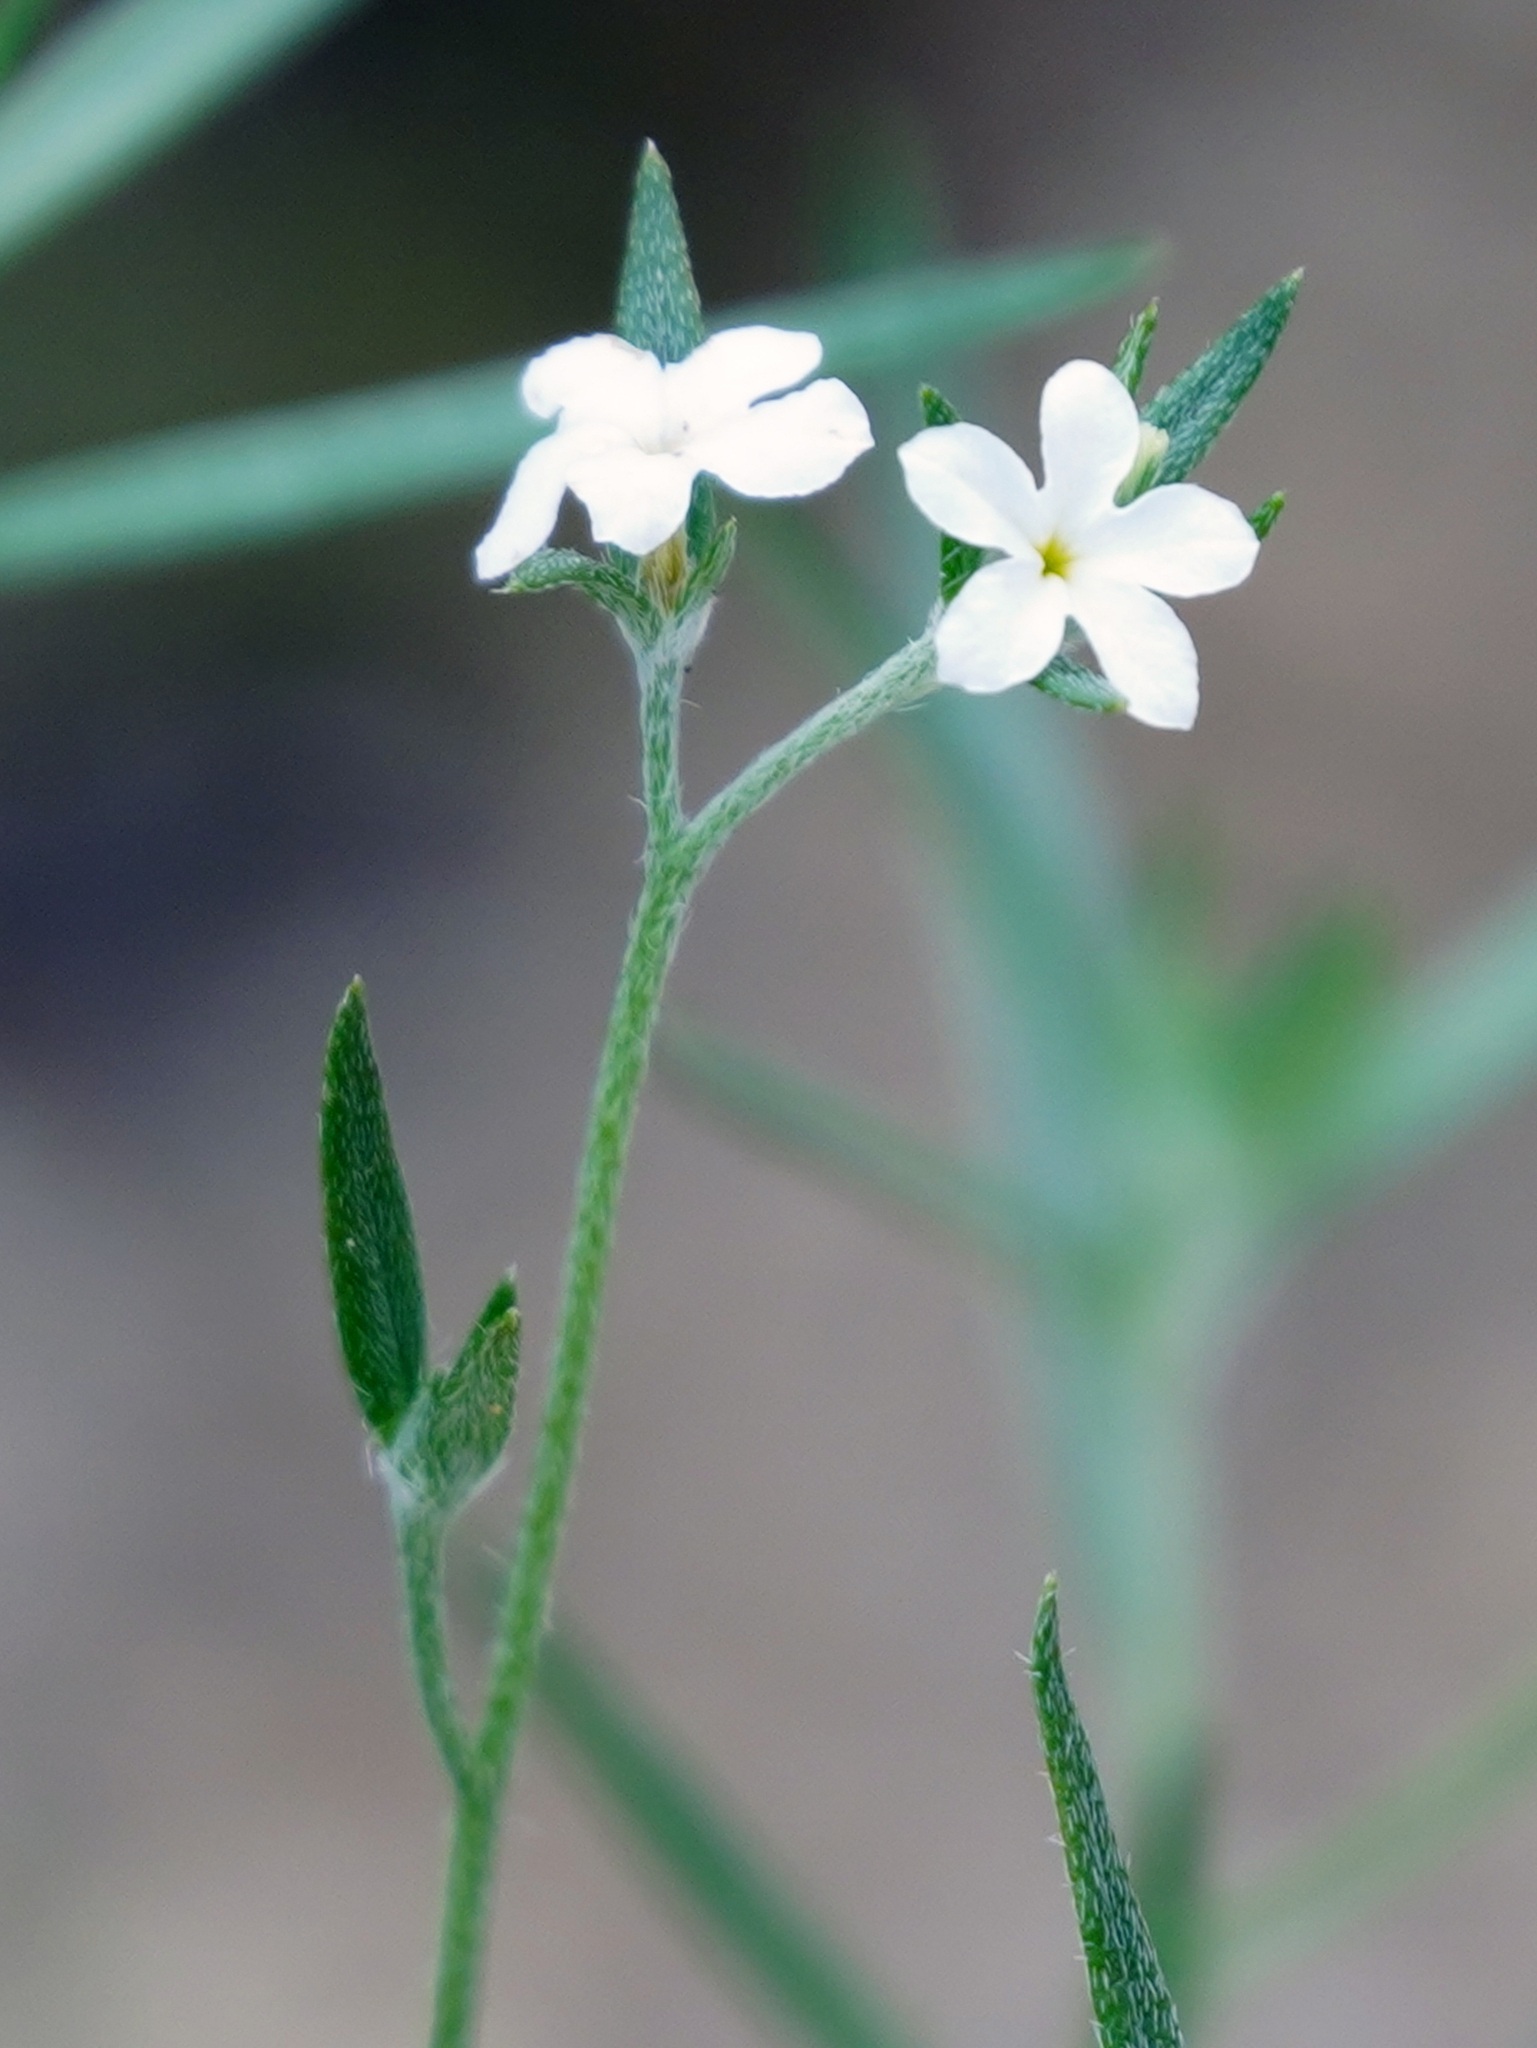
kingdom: Plantae
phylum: Tracheophyta
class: Magnoliopsida
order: Boraginales
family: Heliotropiaceae
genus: Euploca
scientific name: Euploca tenella
